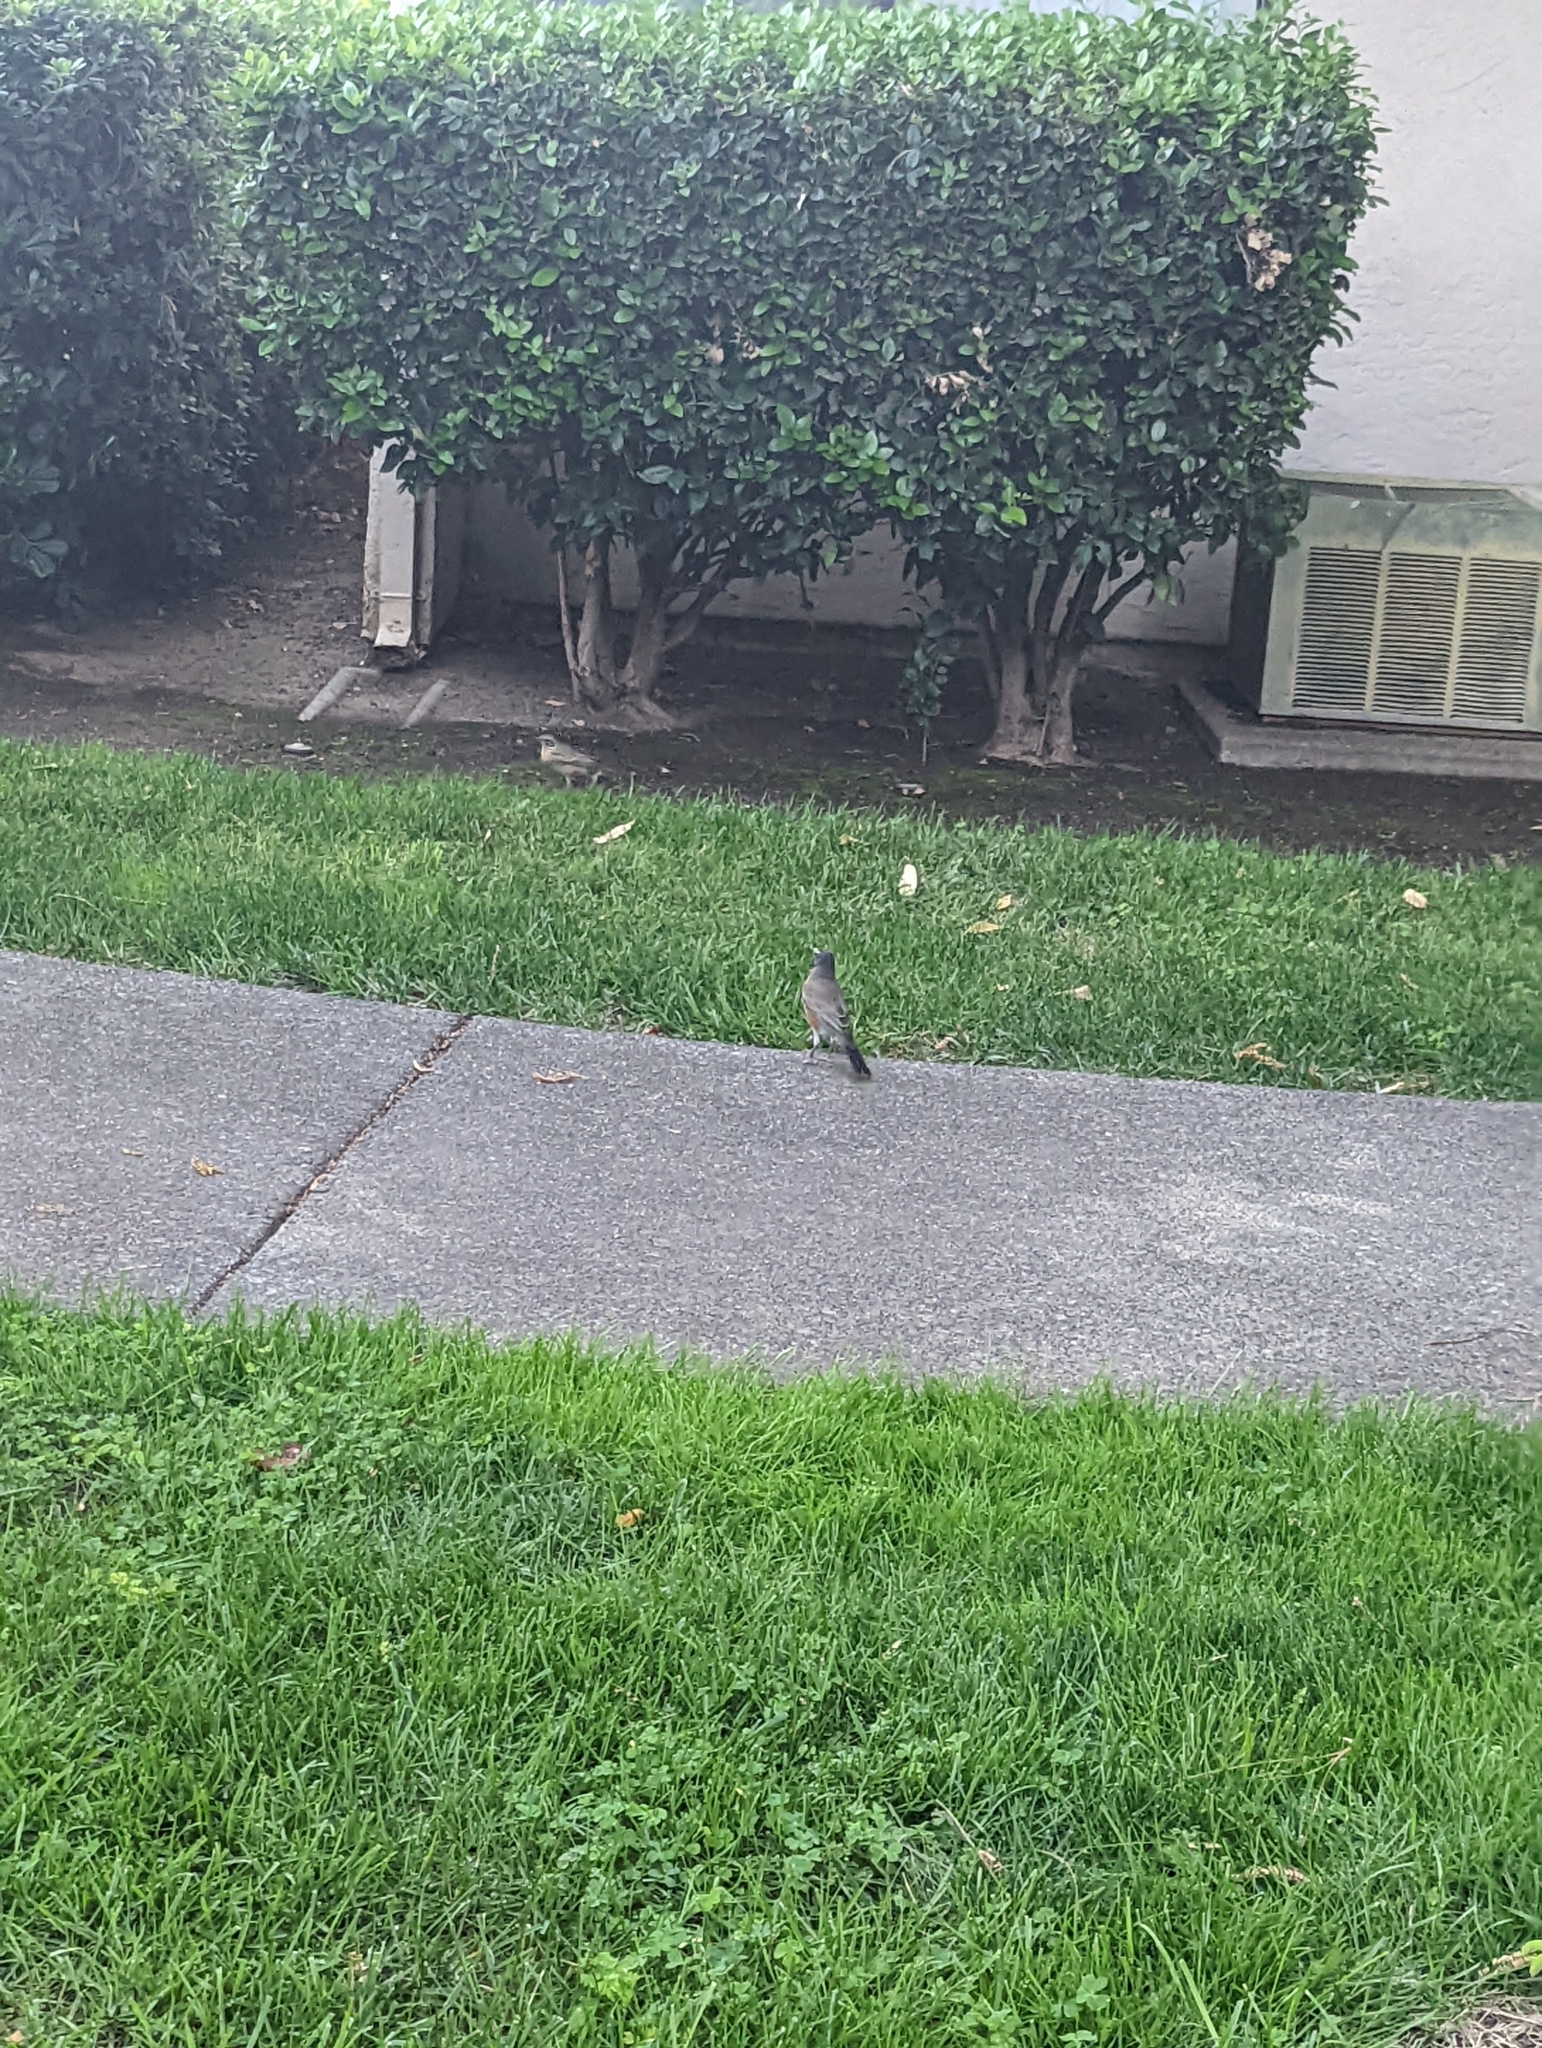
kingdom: Animalia
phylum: Chordata
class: Aves
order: Passeriformes
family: Turdidae
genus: Turdus
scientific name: Turdus migratorius
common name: American robin
